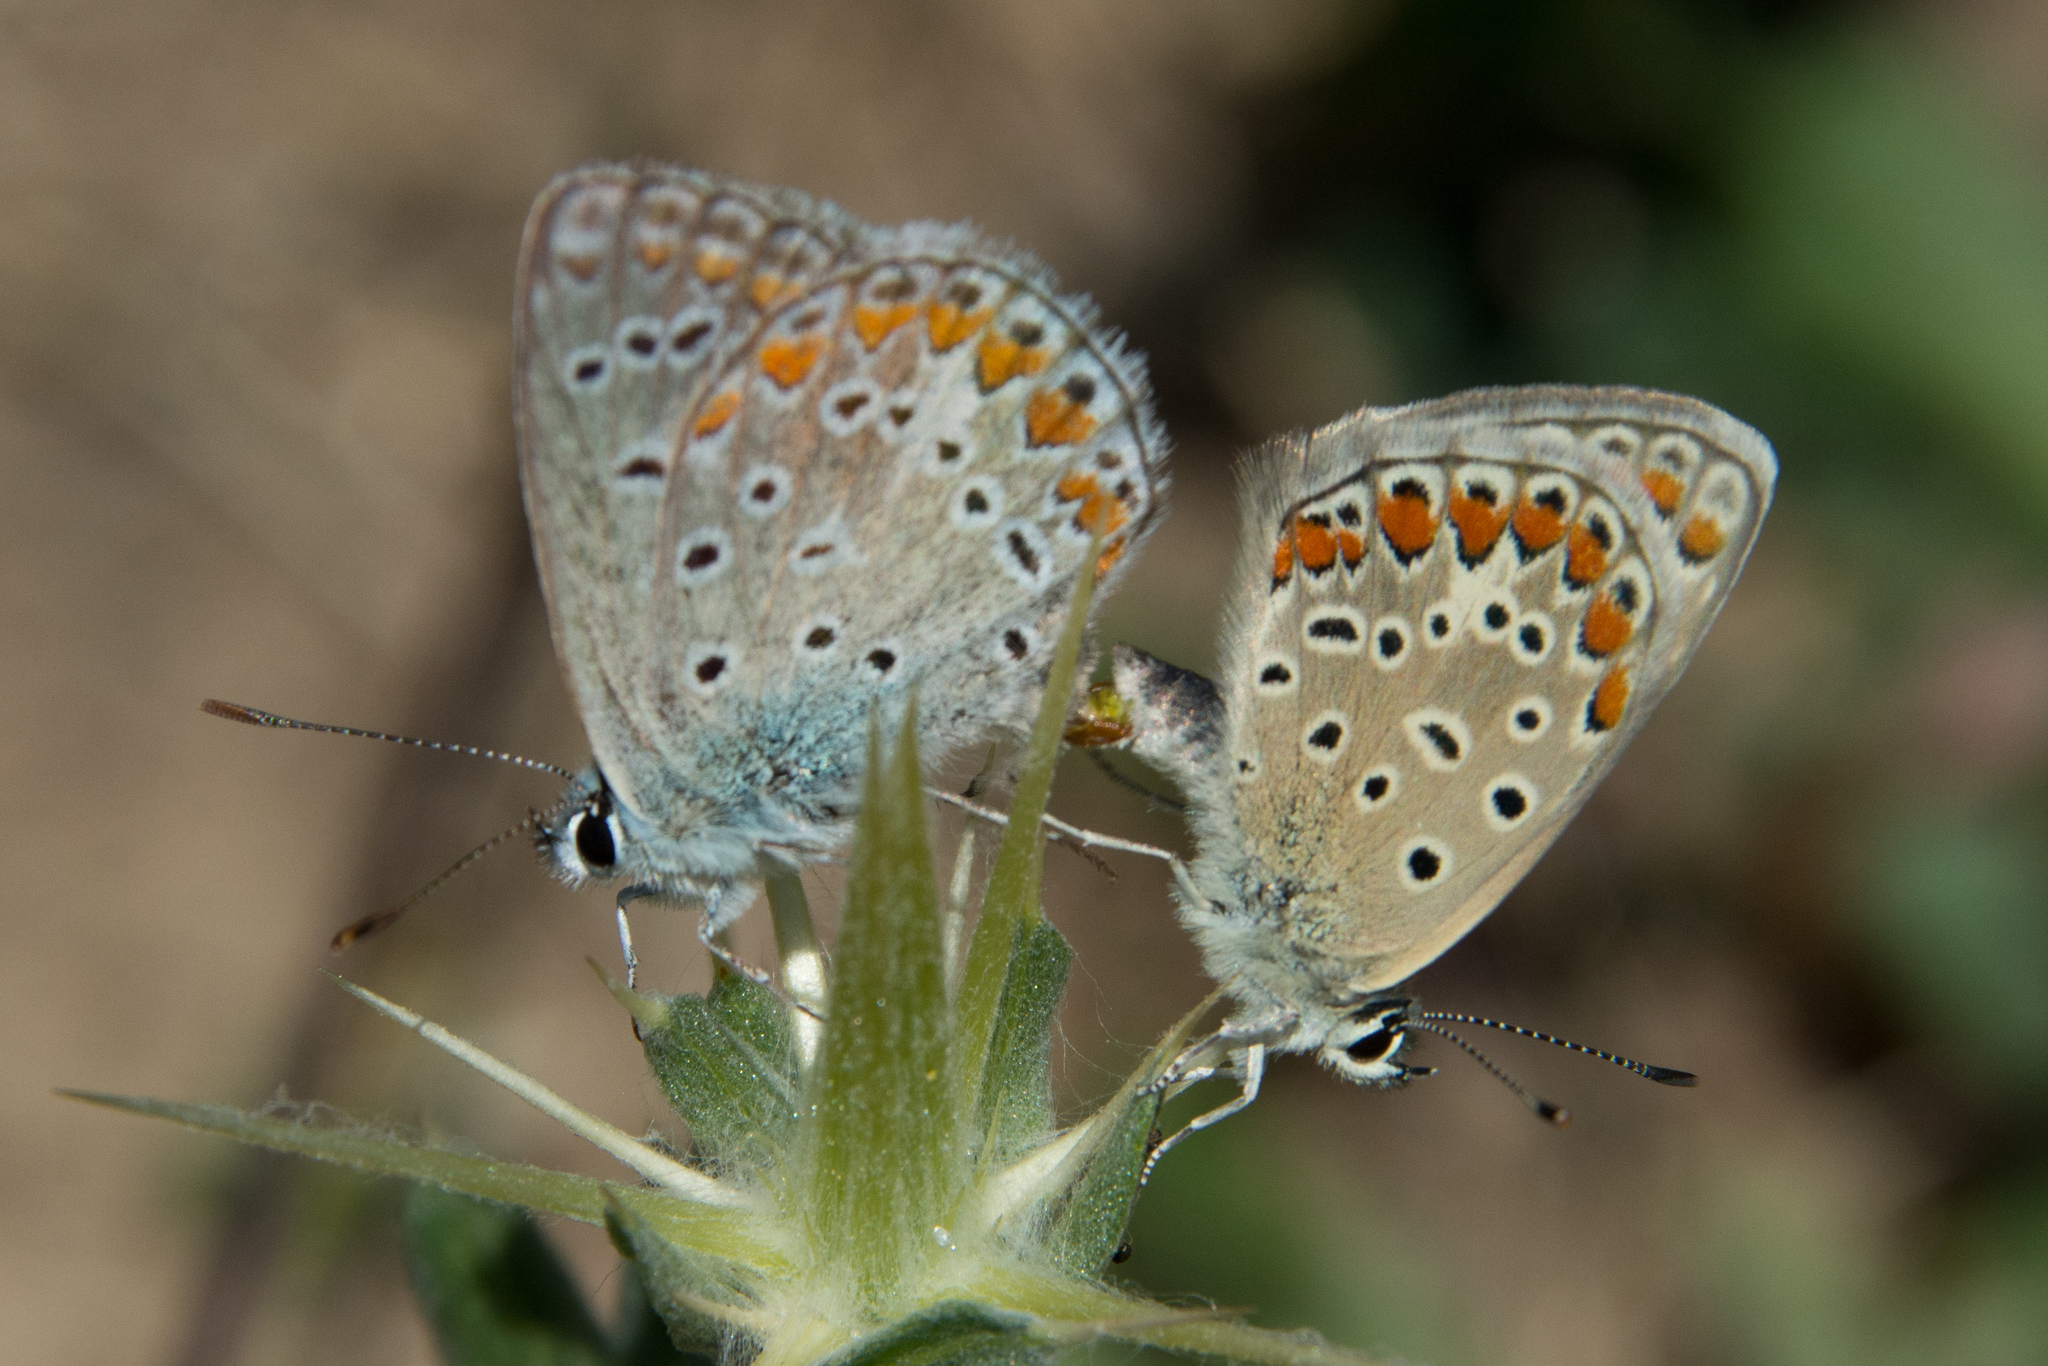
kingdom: Animalia
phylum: Arthropoda
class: Insecta
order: Lepidoptera
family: Lycaenidae
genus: Polyommatus
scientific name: Polyommatus celina
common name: Austaut's blue
